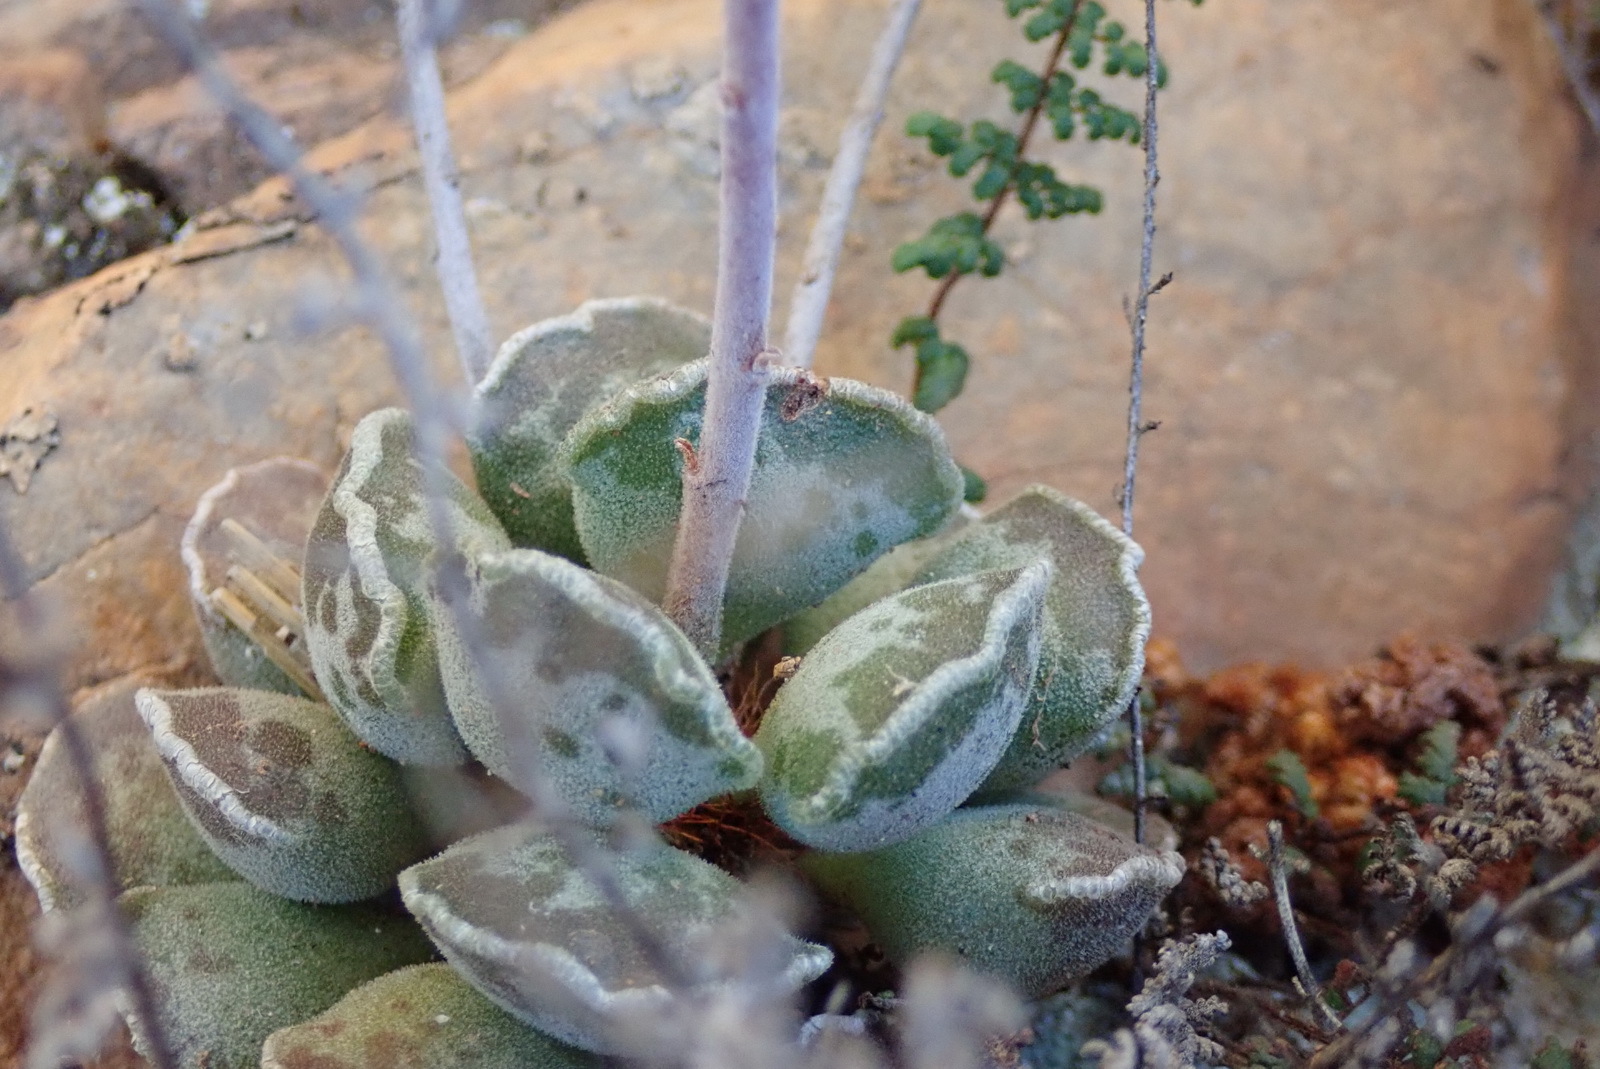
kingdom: Plantae
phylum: Tracheophyta
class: Magnoliopsida
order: Saxifragales
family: Crassulaceae
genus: Adromischus
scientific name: Adromischus cristatus
